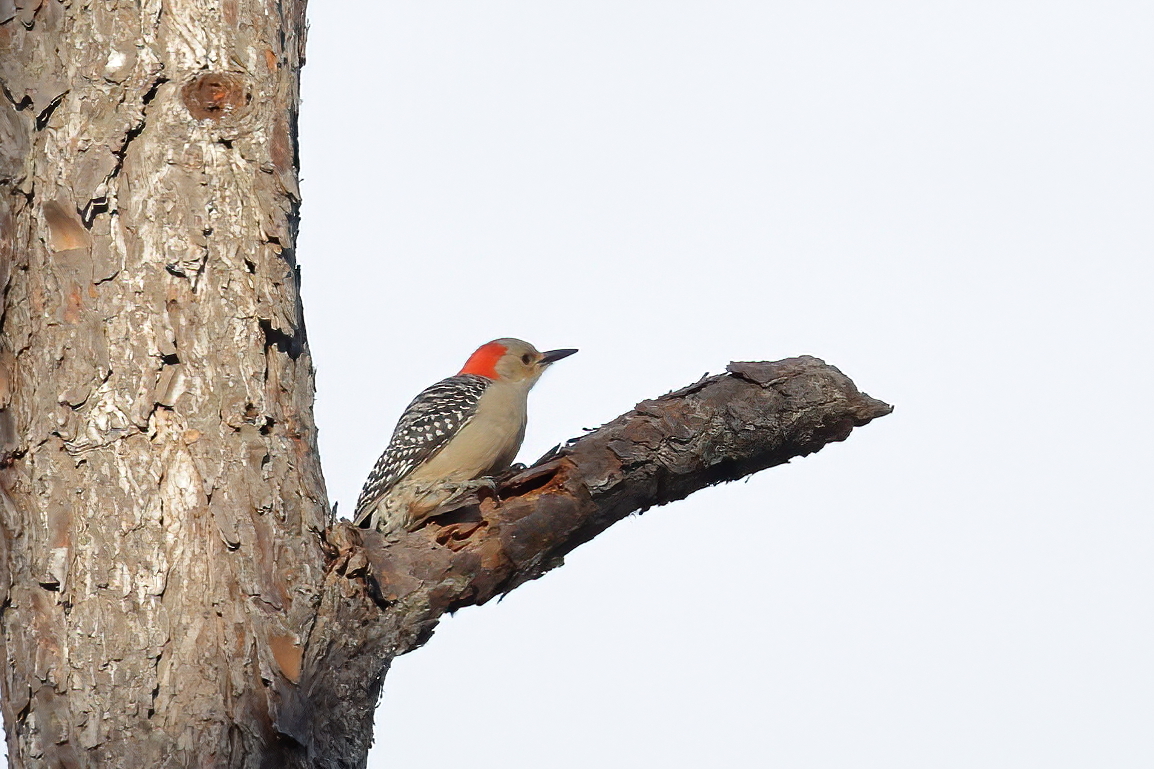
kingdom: Animalia
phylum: Chordata
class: Aves
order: Piciformes
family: Picidae
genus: Melanerpes
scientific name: Melanerpes carolinus
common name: Red-bellied woodpecker
